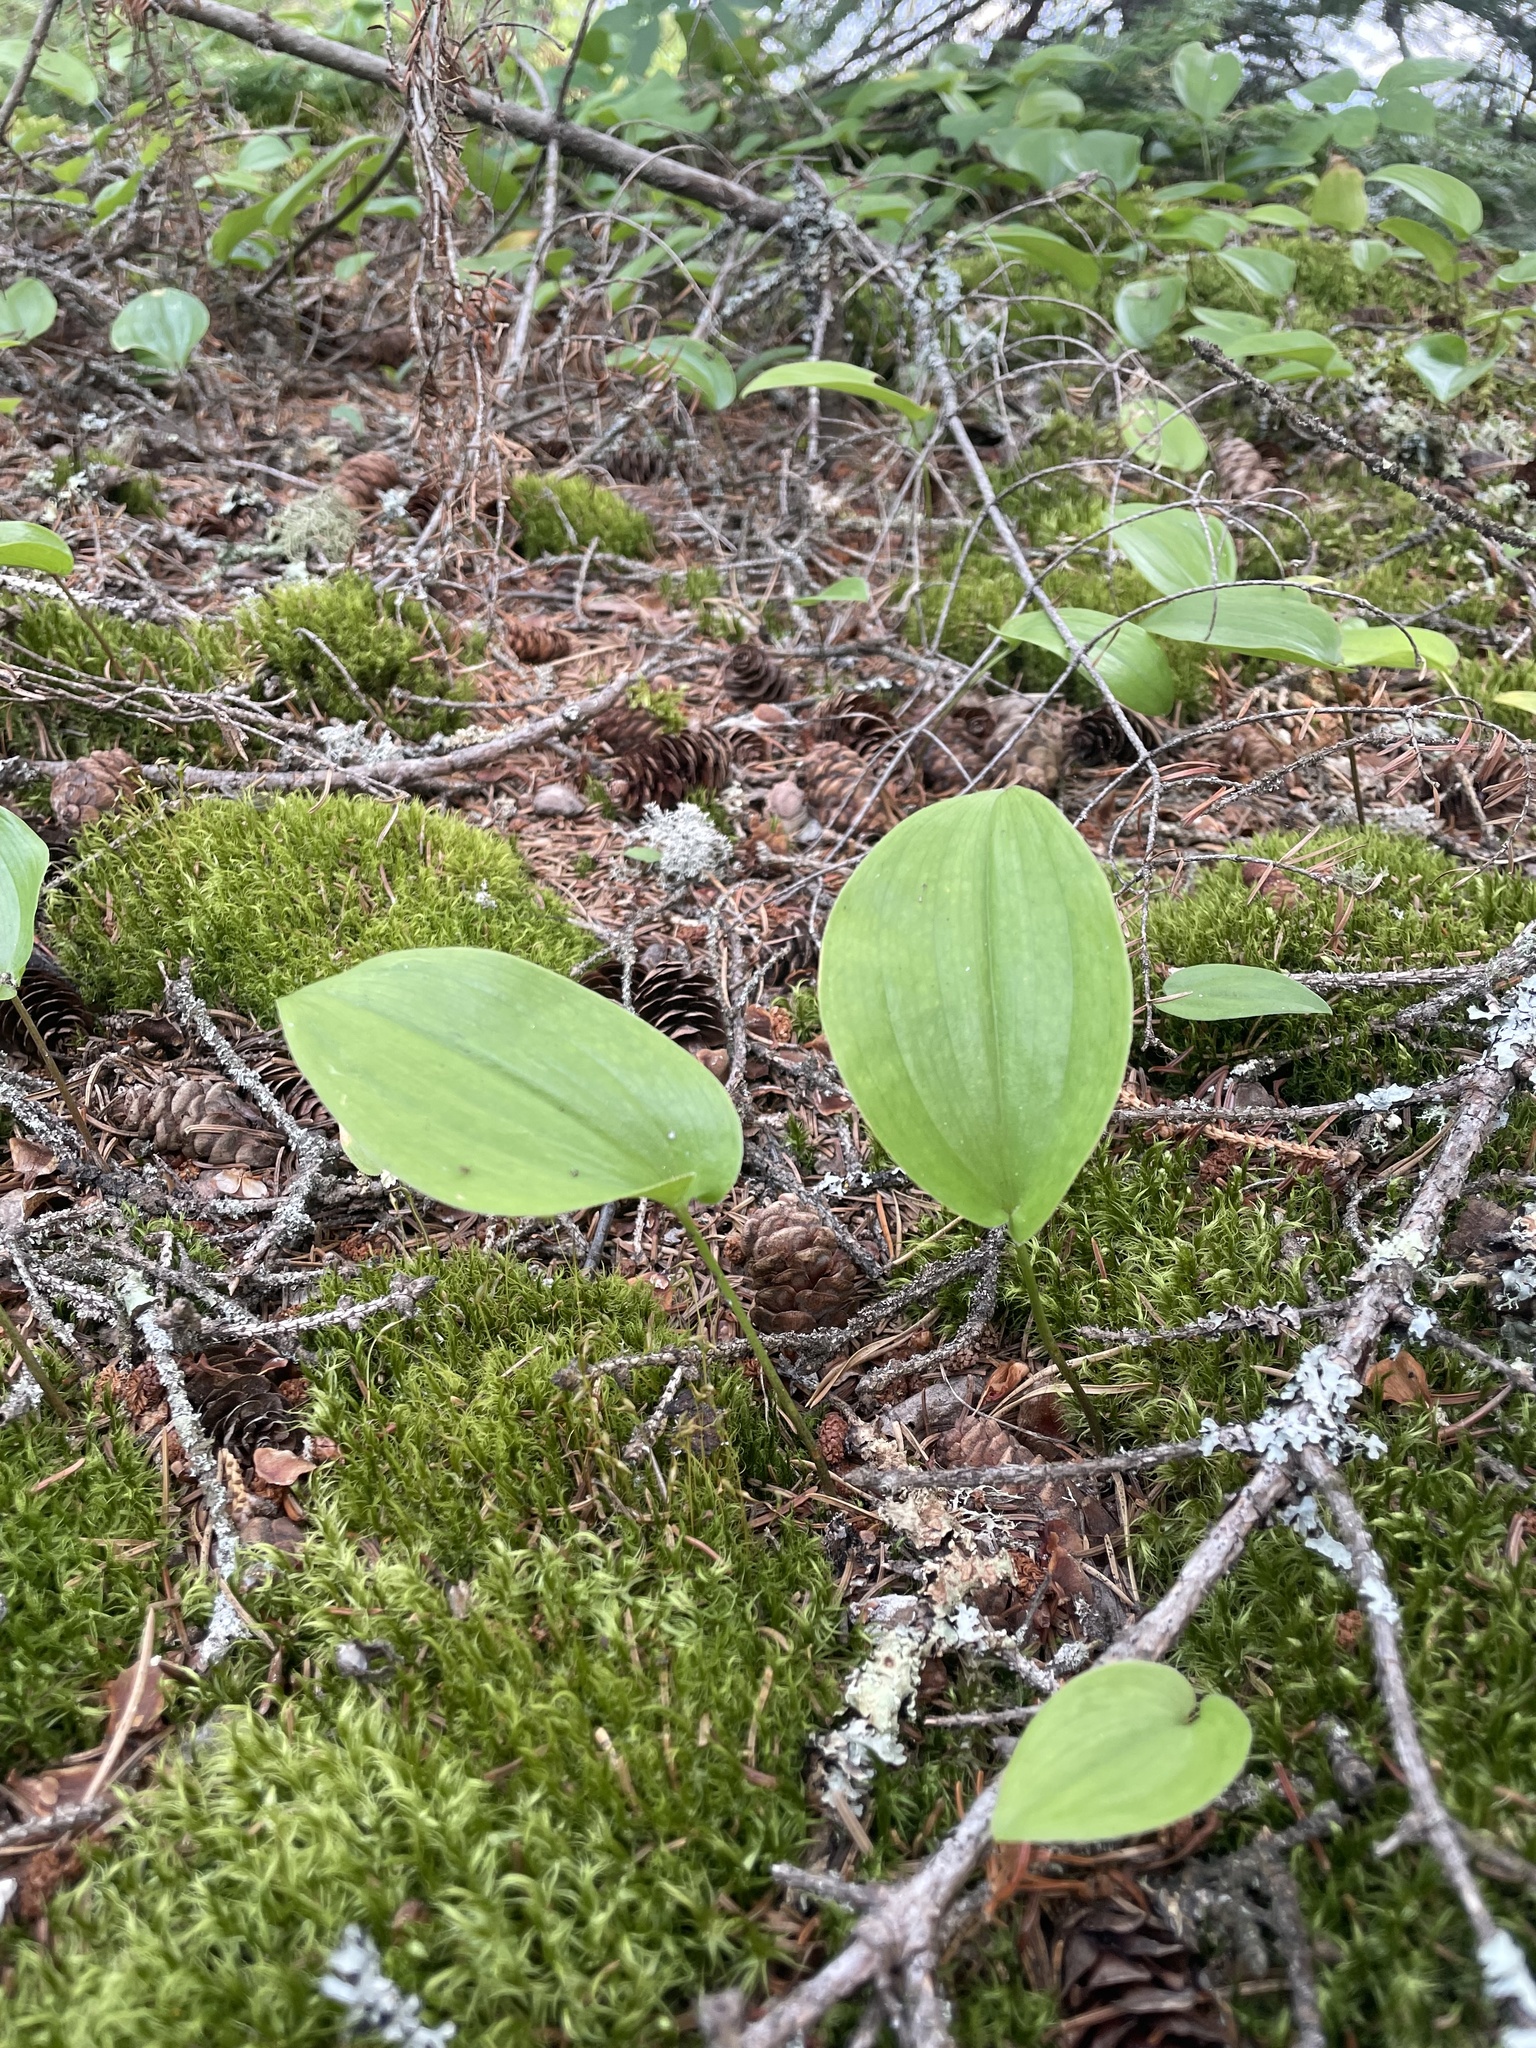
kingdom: Plantae
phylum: Tracheophyta
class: Liliopsida
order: Asparagales
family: Asparagaceae
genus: Maianthemum
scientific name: Maianthemum canadense
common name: False lily-of-the-valley
